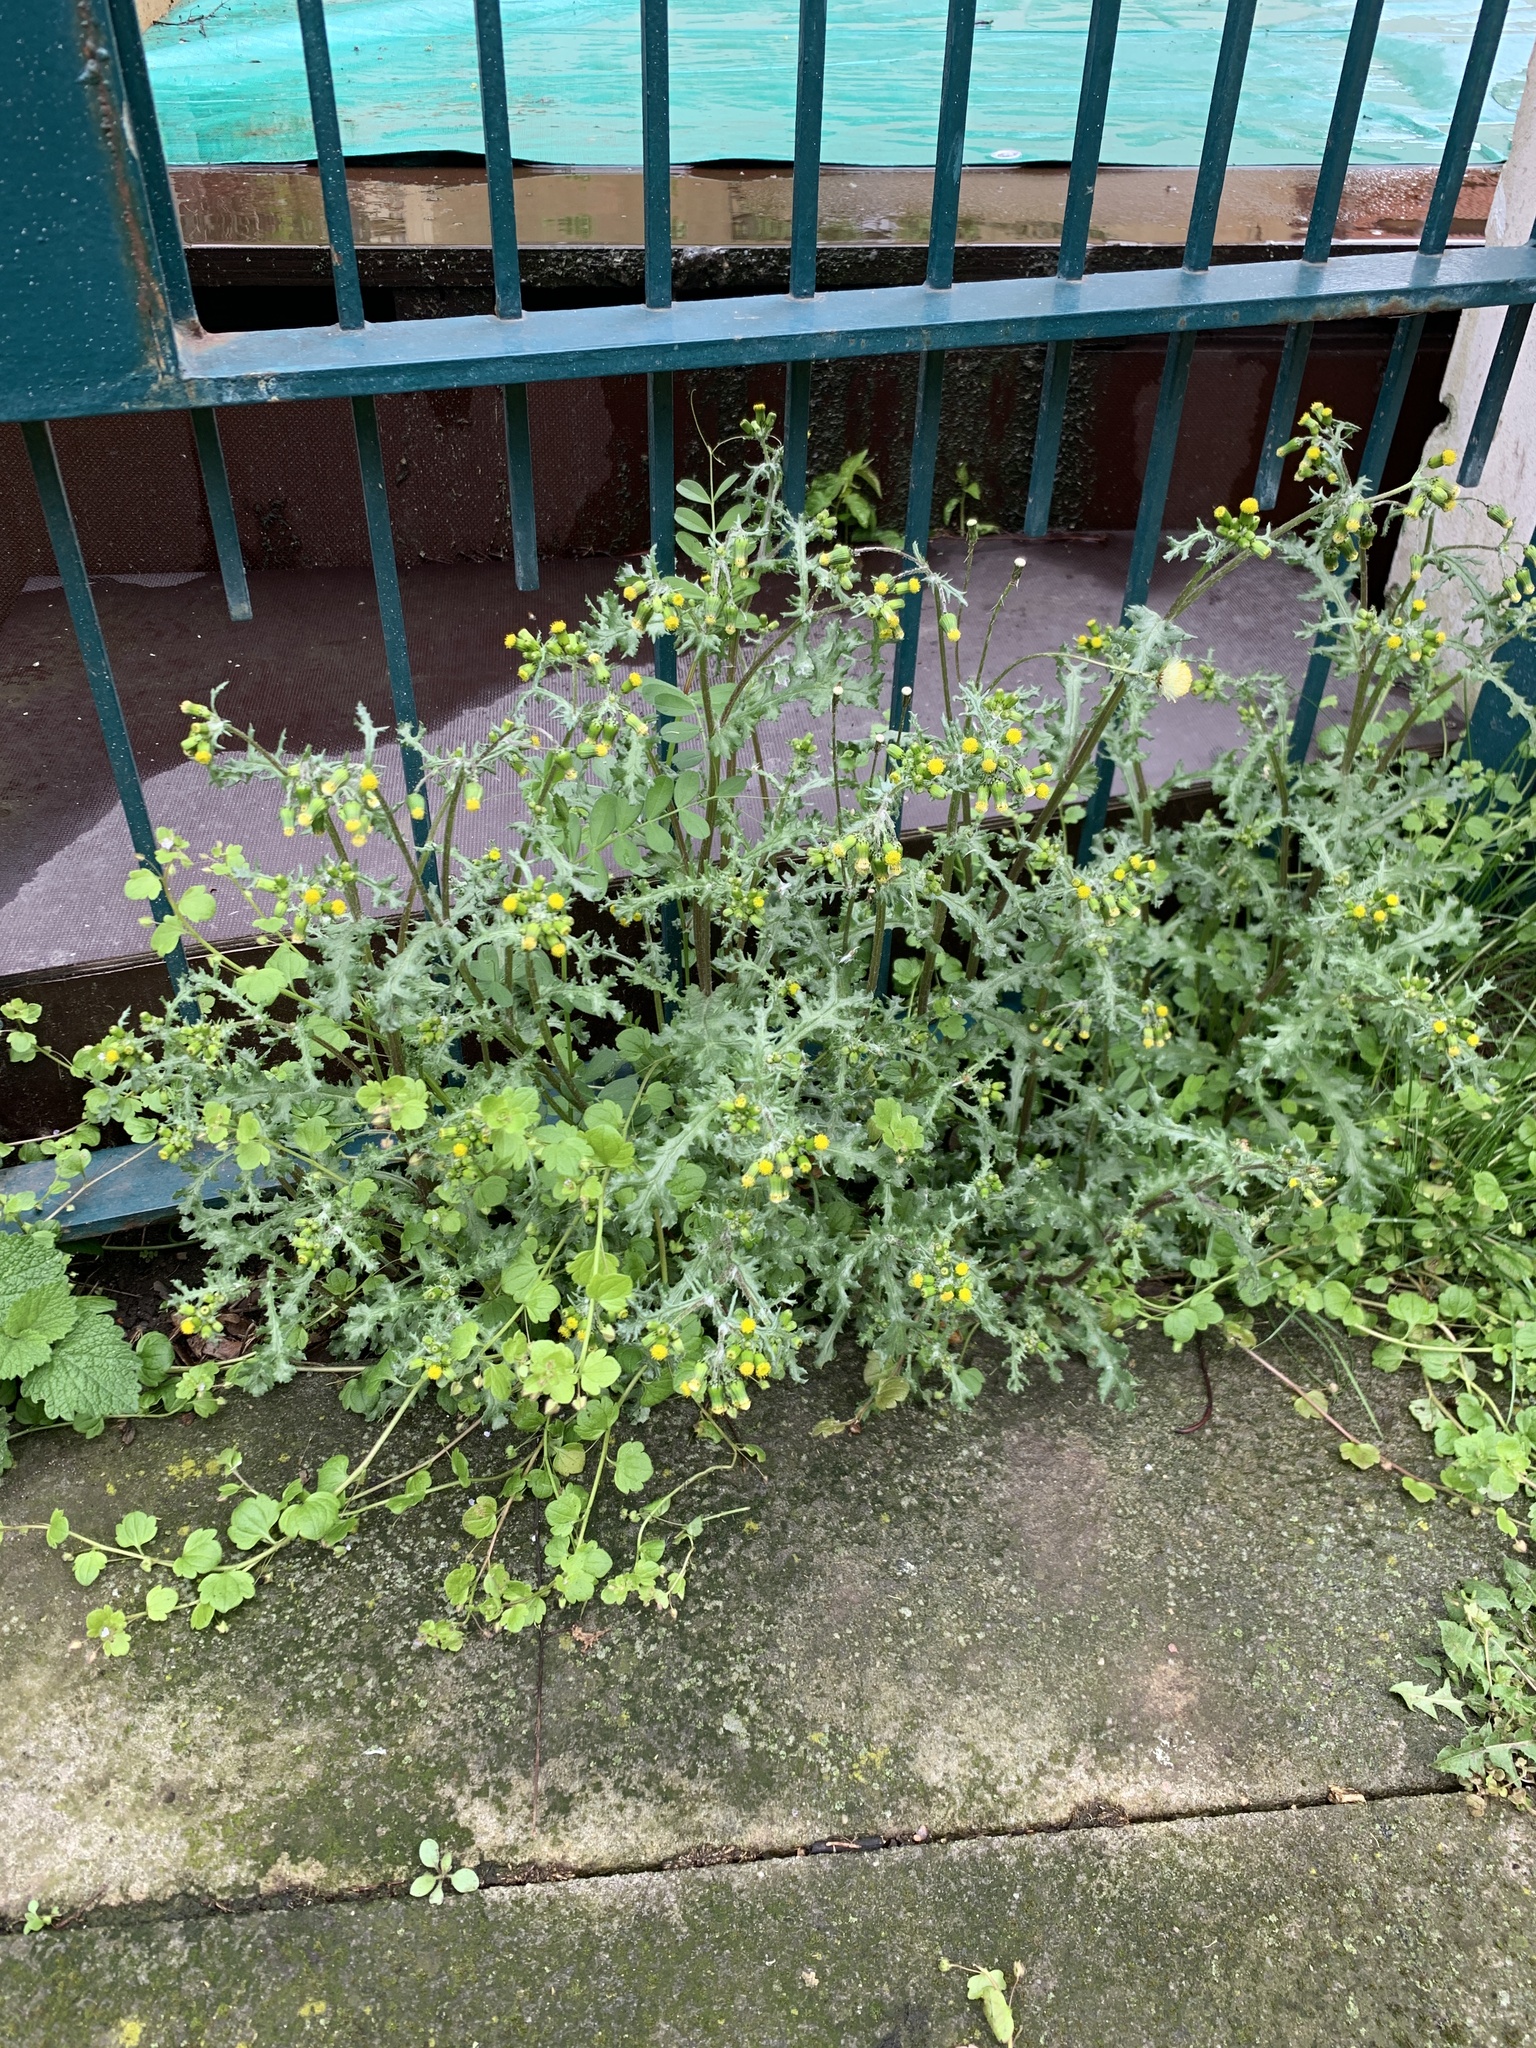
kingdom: Plantae
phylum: Tracheophyta
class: Magnoliopsida
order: Asterales
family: Asteraceae
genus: Senecio
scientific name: Senecio vulgaris
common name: Old-man-in-the-spring
